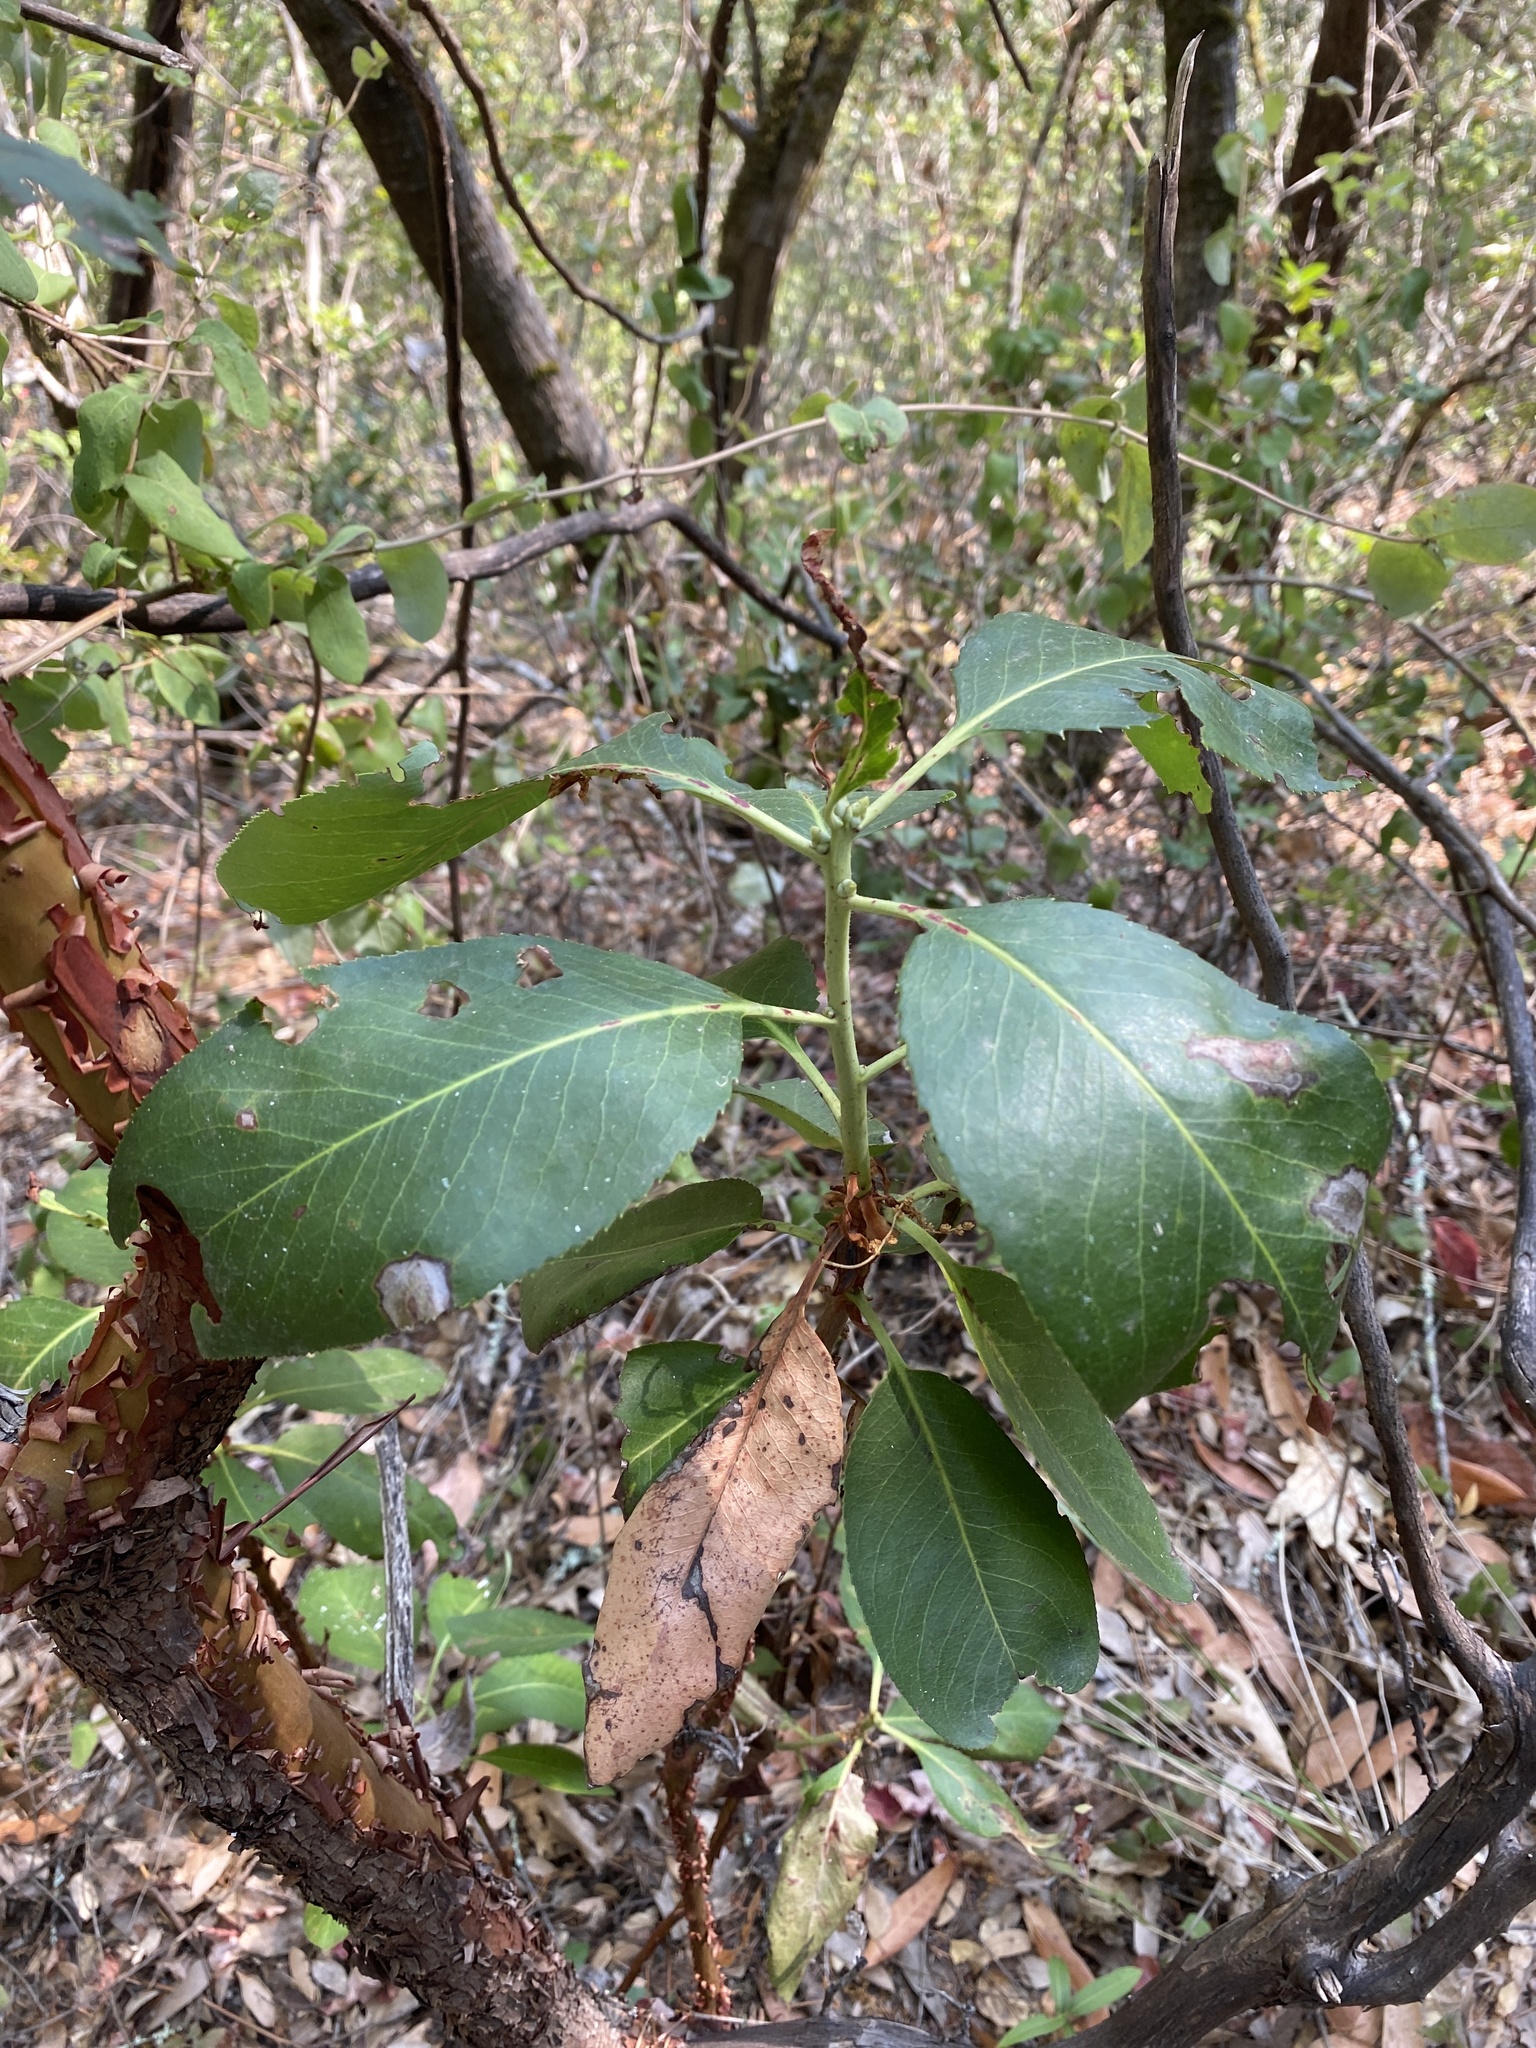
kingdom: Plantae
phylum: Tracheophyta
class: Magnoliopsida
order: Ericales
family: Ericaceae
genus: Arbutus
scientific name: Arbutus menziesii
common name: Pacific madrone
